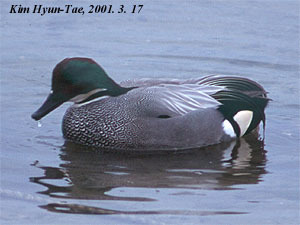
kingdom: Animalia
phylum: Chordata
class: Aves
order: Anseriformes
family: Anatidae
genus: Mareca
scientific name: Mareca falcata
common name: Falcated duck
